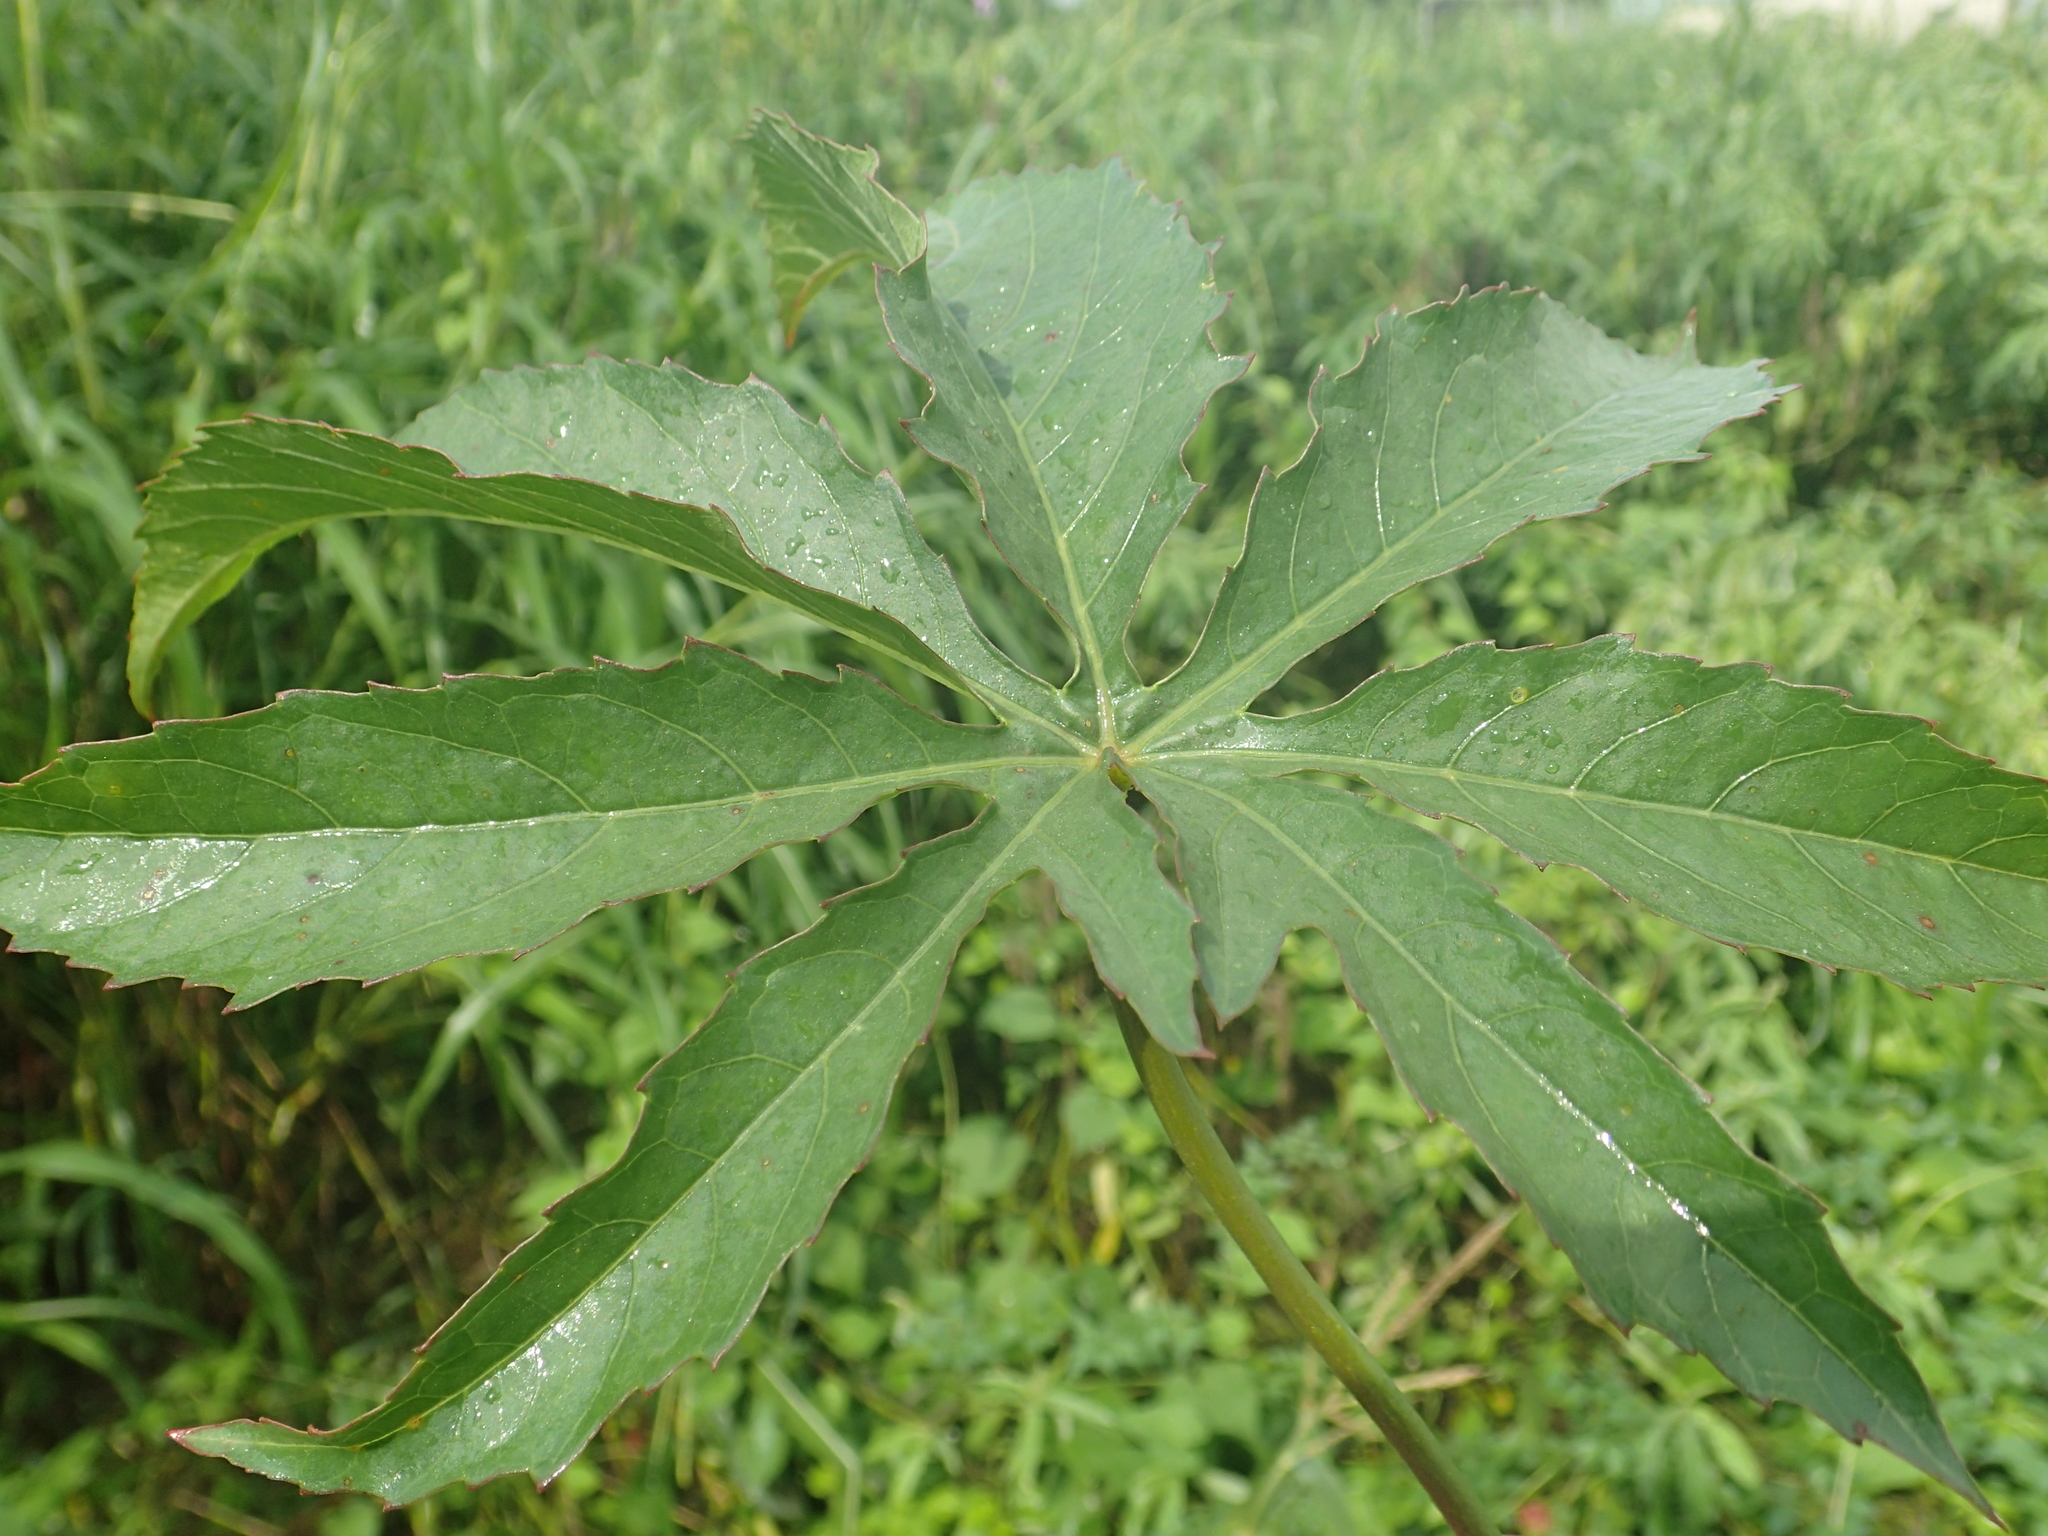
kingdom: Plantae
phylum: Tracheophyta
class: Magnoliopsida
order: Malvales
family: Malvaceae
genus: Hibiscus
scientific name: Hibiscus cannabinus
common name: Brown indianhemp
